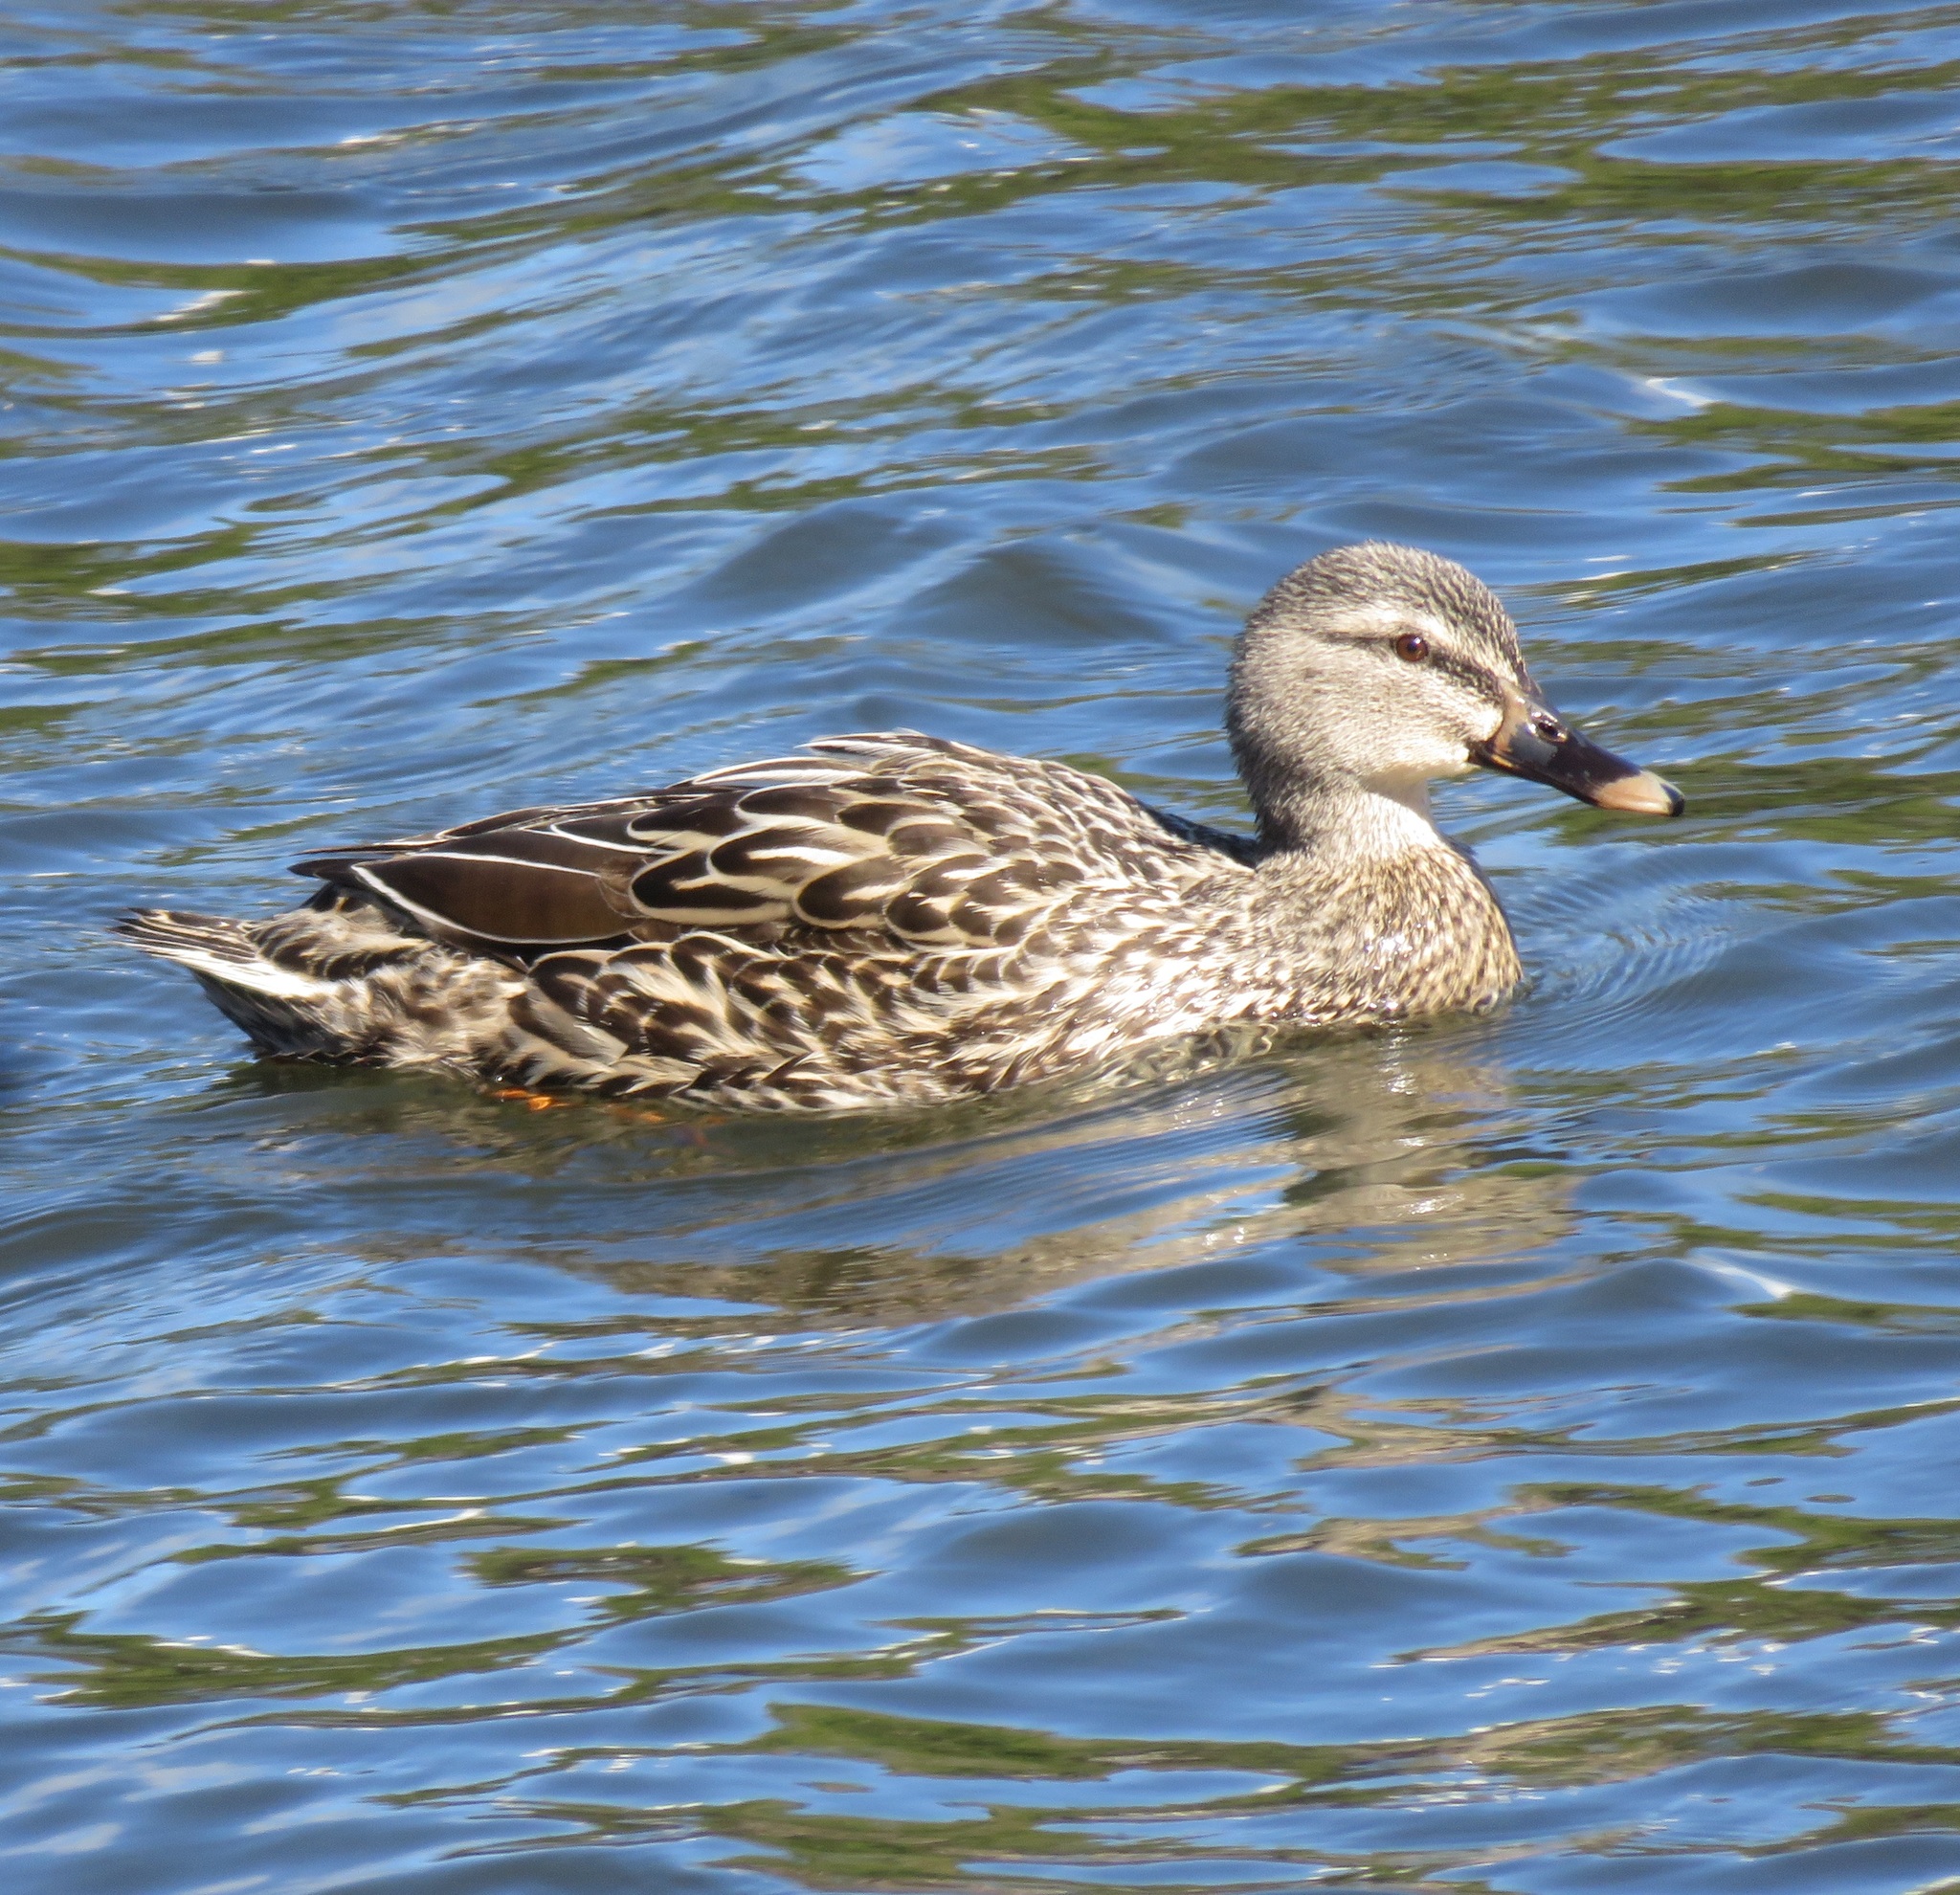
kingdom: Animalia
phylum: Chordata
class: Aves
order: Anseriformes
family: Anatidae
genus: Anas
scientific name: Anas platyrhynchos
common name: Mallard
